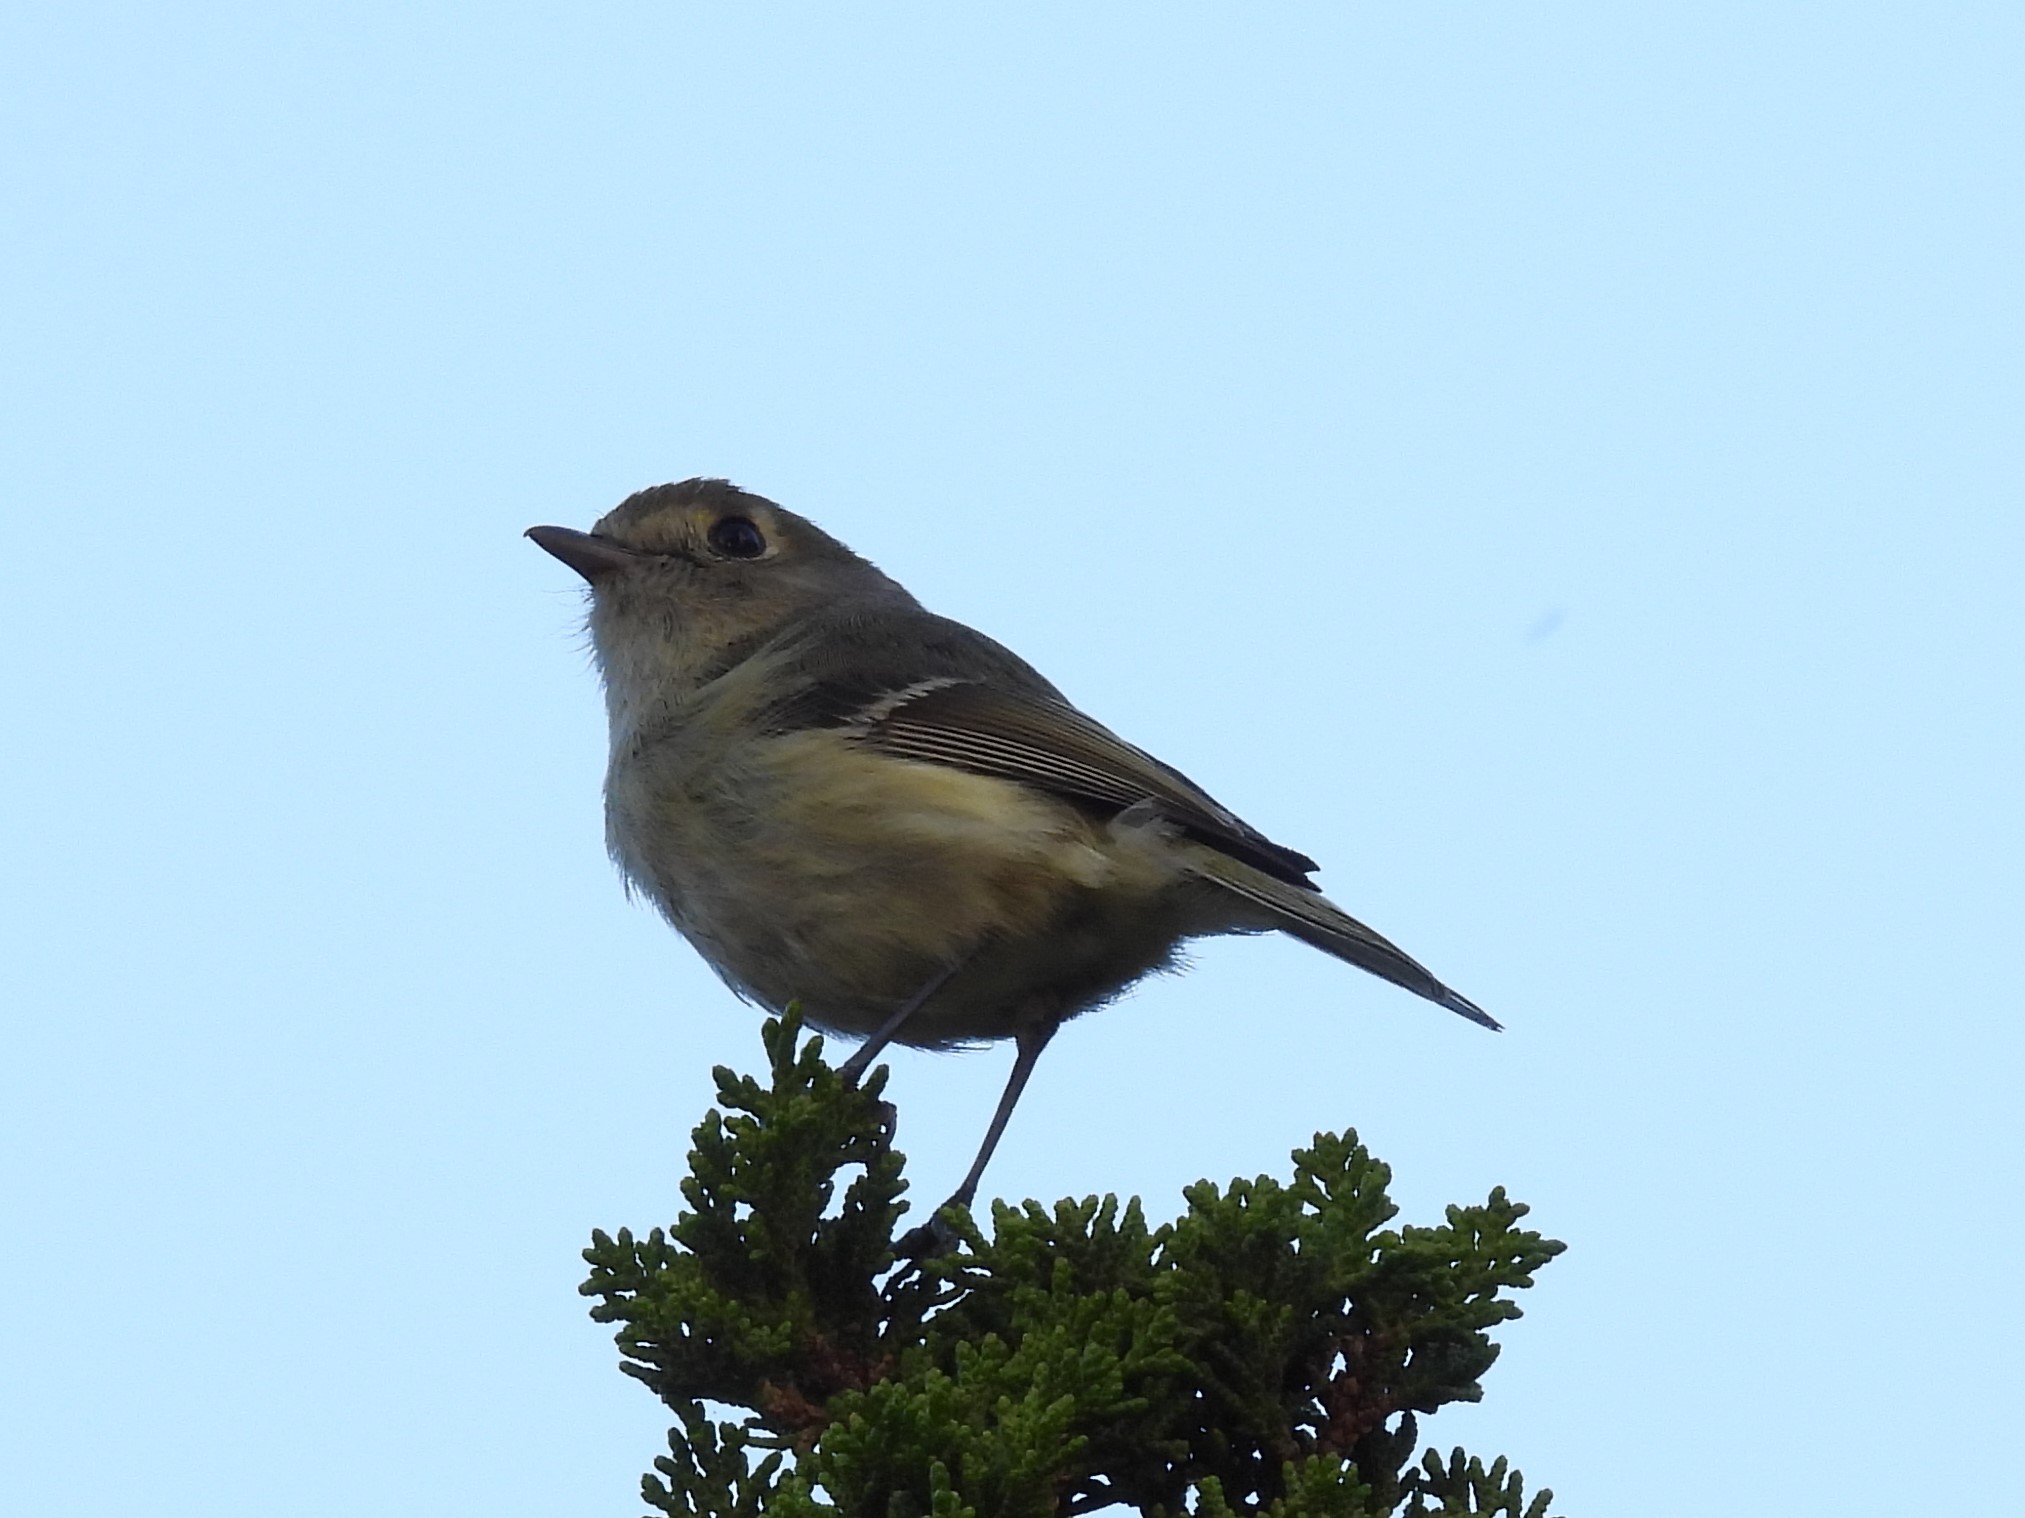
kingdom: Animalia
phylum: Chordata
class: Aves
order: Passeriformes
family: Vireonidae
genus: Vireo
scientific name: Vireo huttoni
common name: Hutton's vireo
